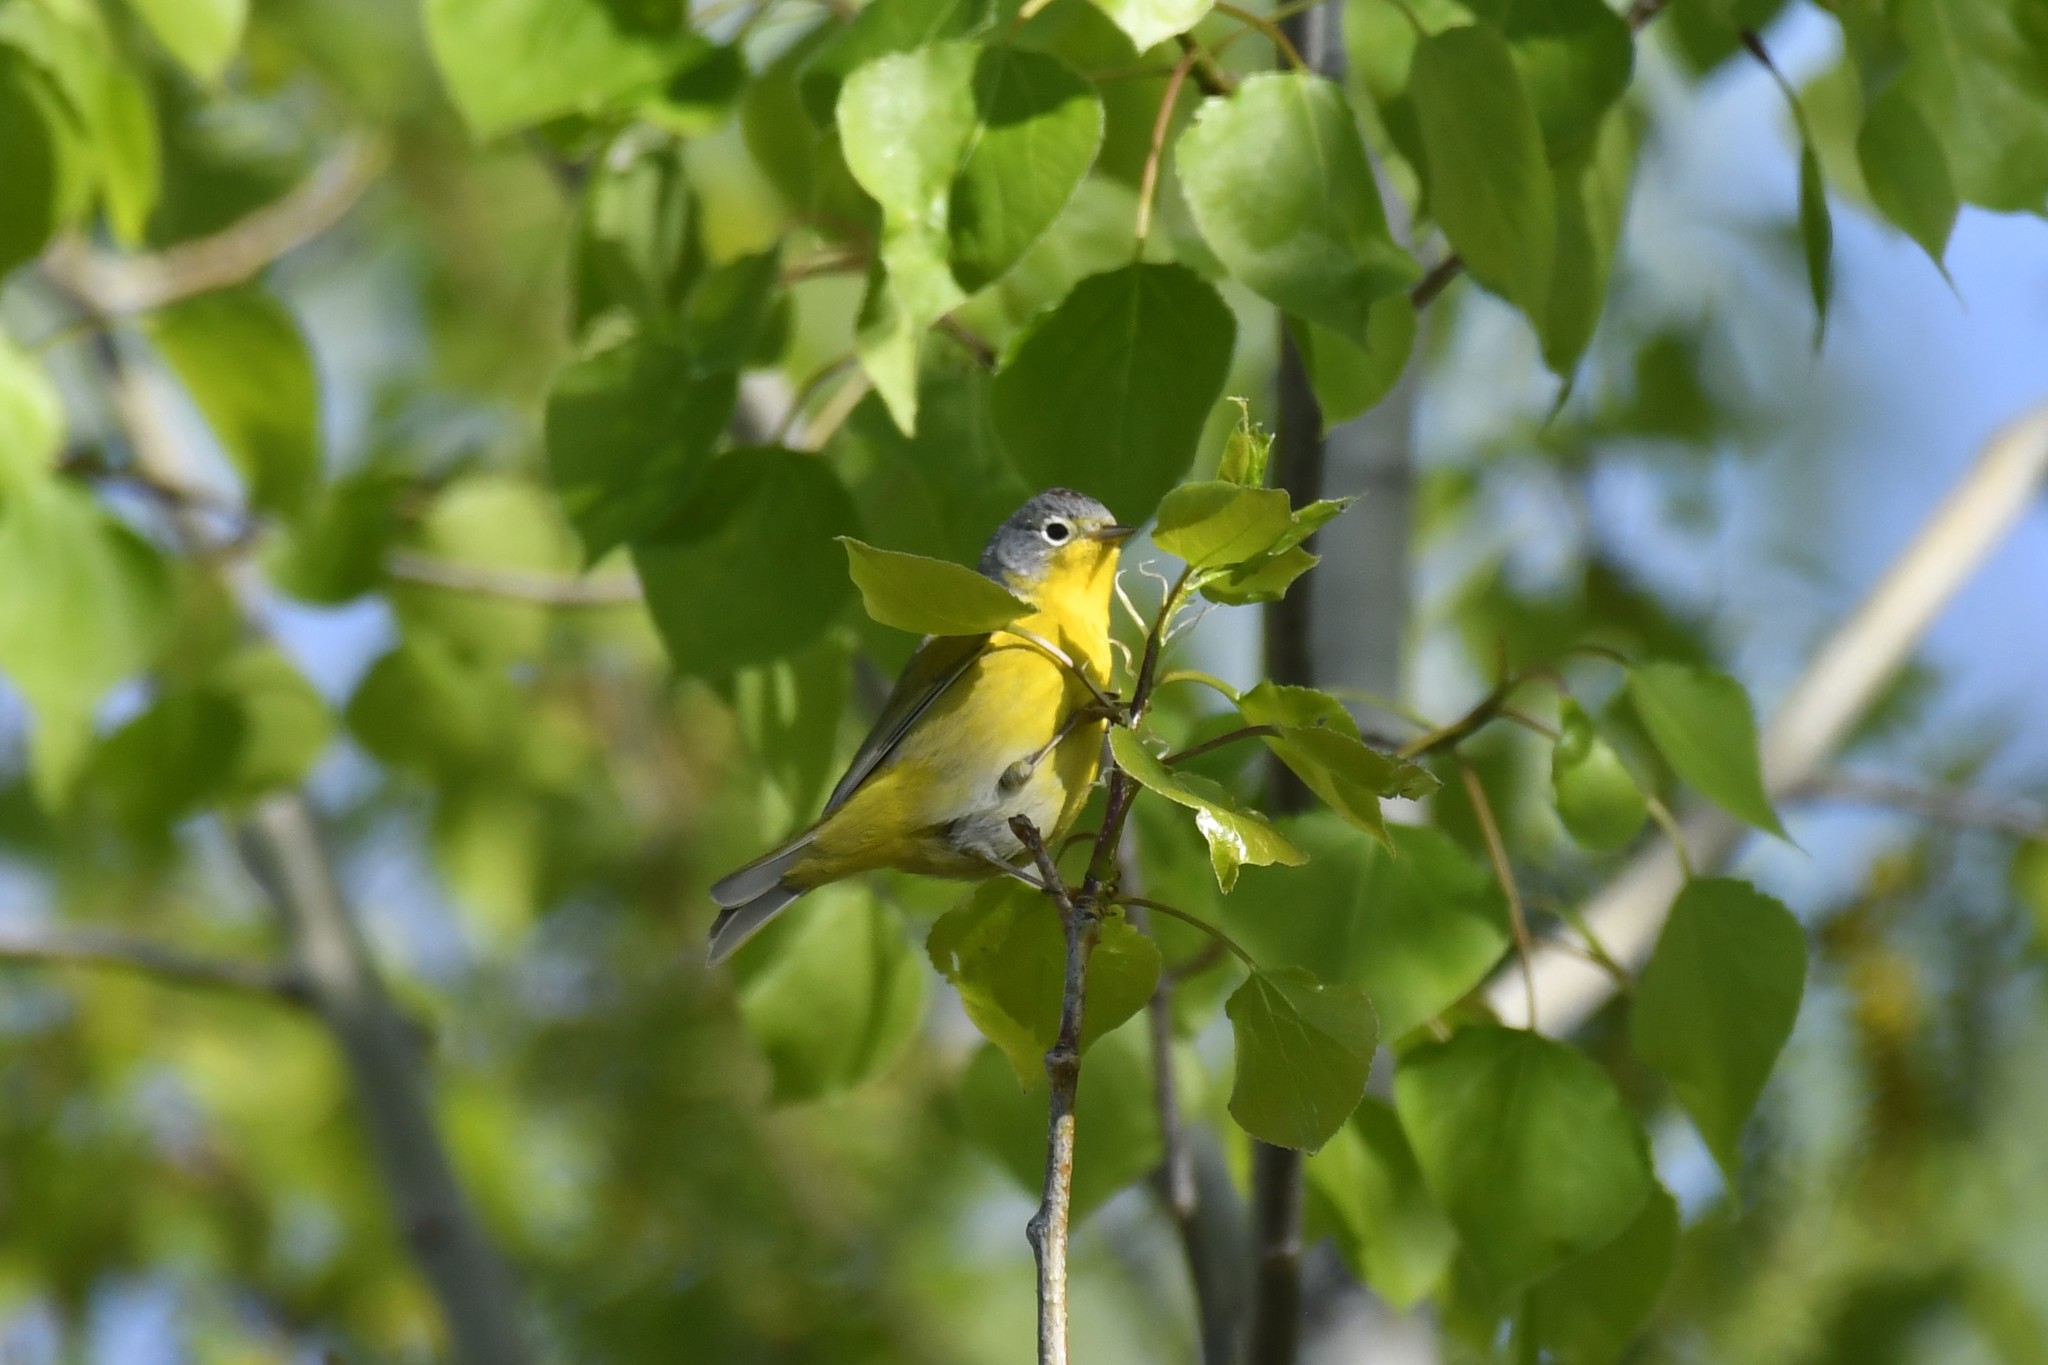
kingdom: Animalia
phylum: Chordata
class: Aves
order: Passeriformes
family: Parulidae
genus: Leiothlypis
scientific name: Leiothlypis ruficapilla
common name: Nashville warbler
